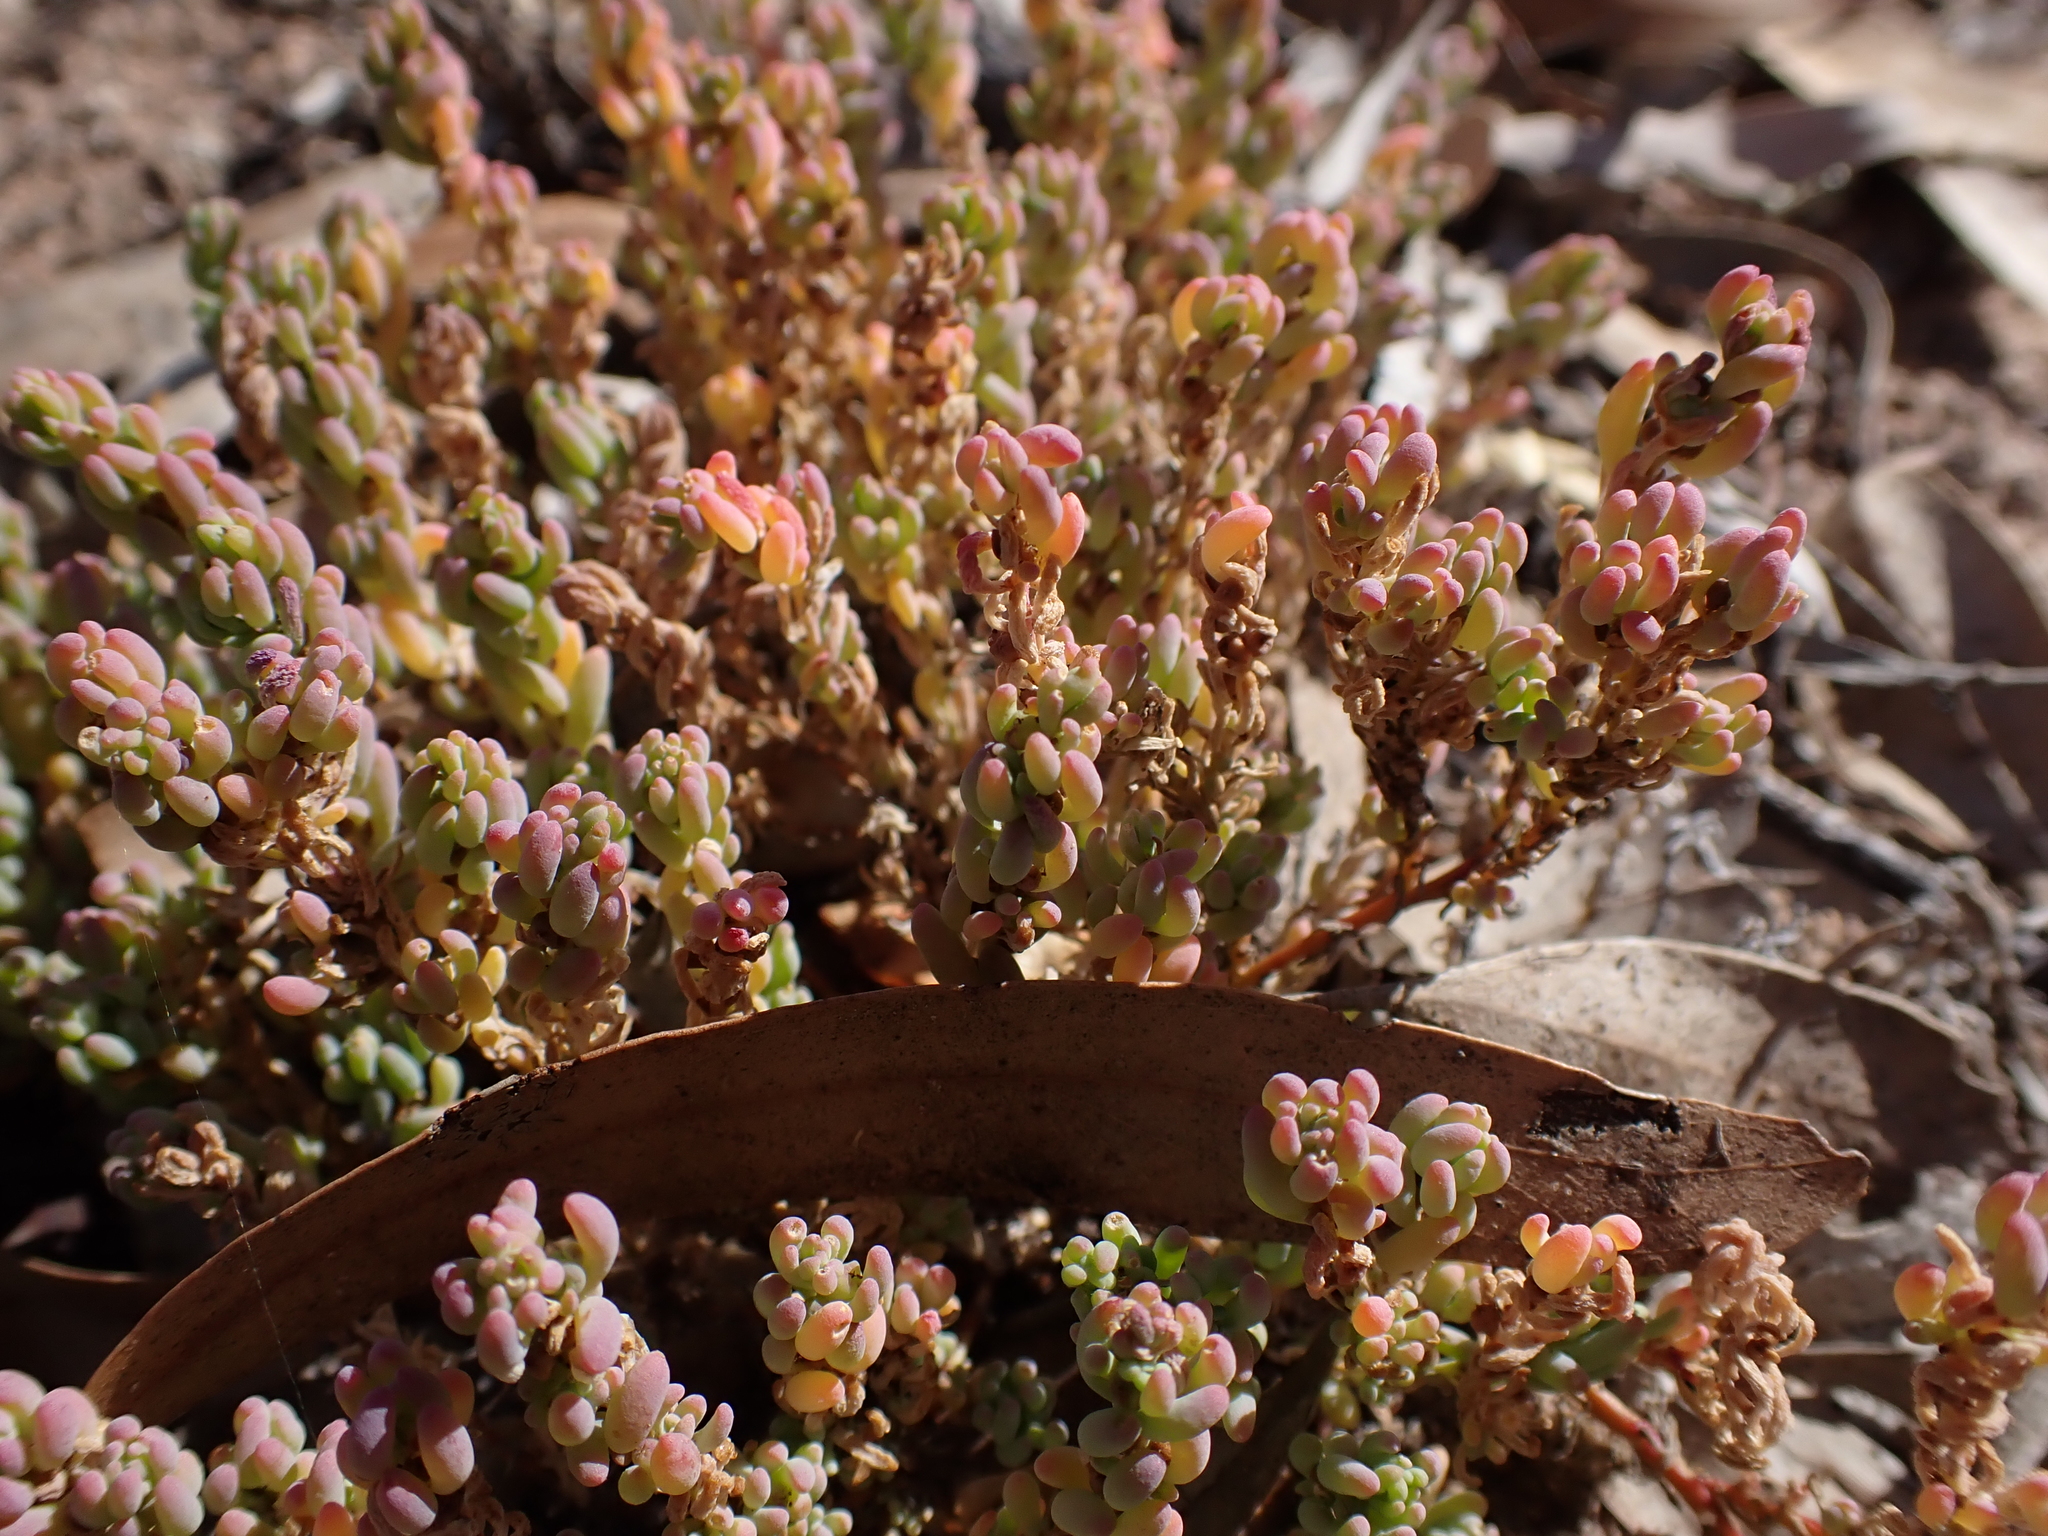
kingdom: Plantae
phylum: Tracheophyta
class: Magnoliopsida
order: Caryophyllales
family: Amaranthaceae
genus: Osteocarpum
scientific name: Osteocarpum acropterum
